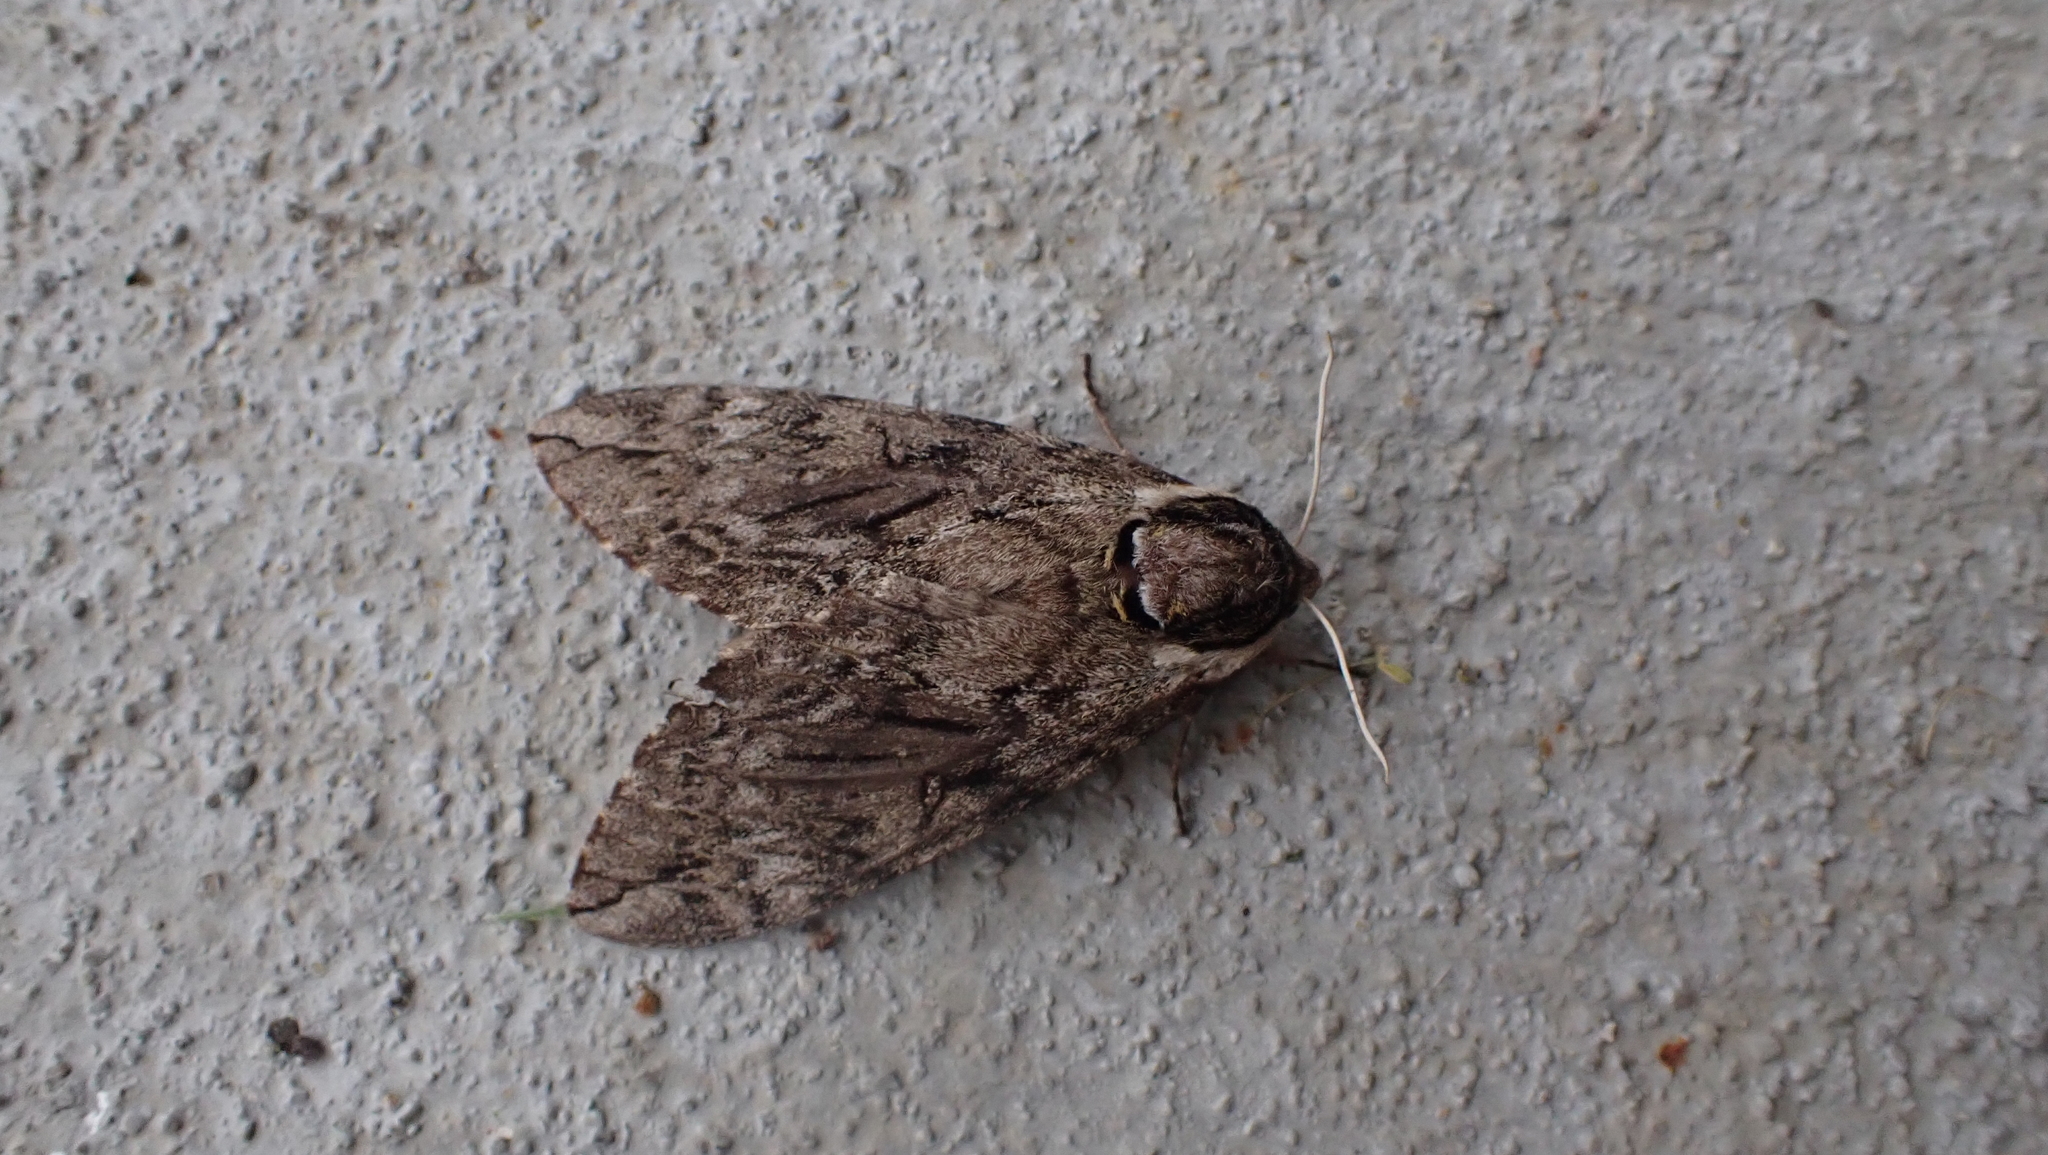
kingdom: Animalia
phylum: Arthropoda
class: Insecta
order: Lepidoptera
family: Sphingidae
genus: Ceratomia
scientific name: Ceratomia catalpae
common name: Catalpa hornworm
